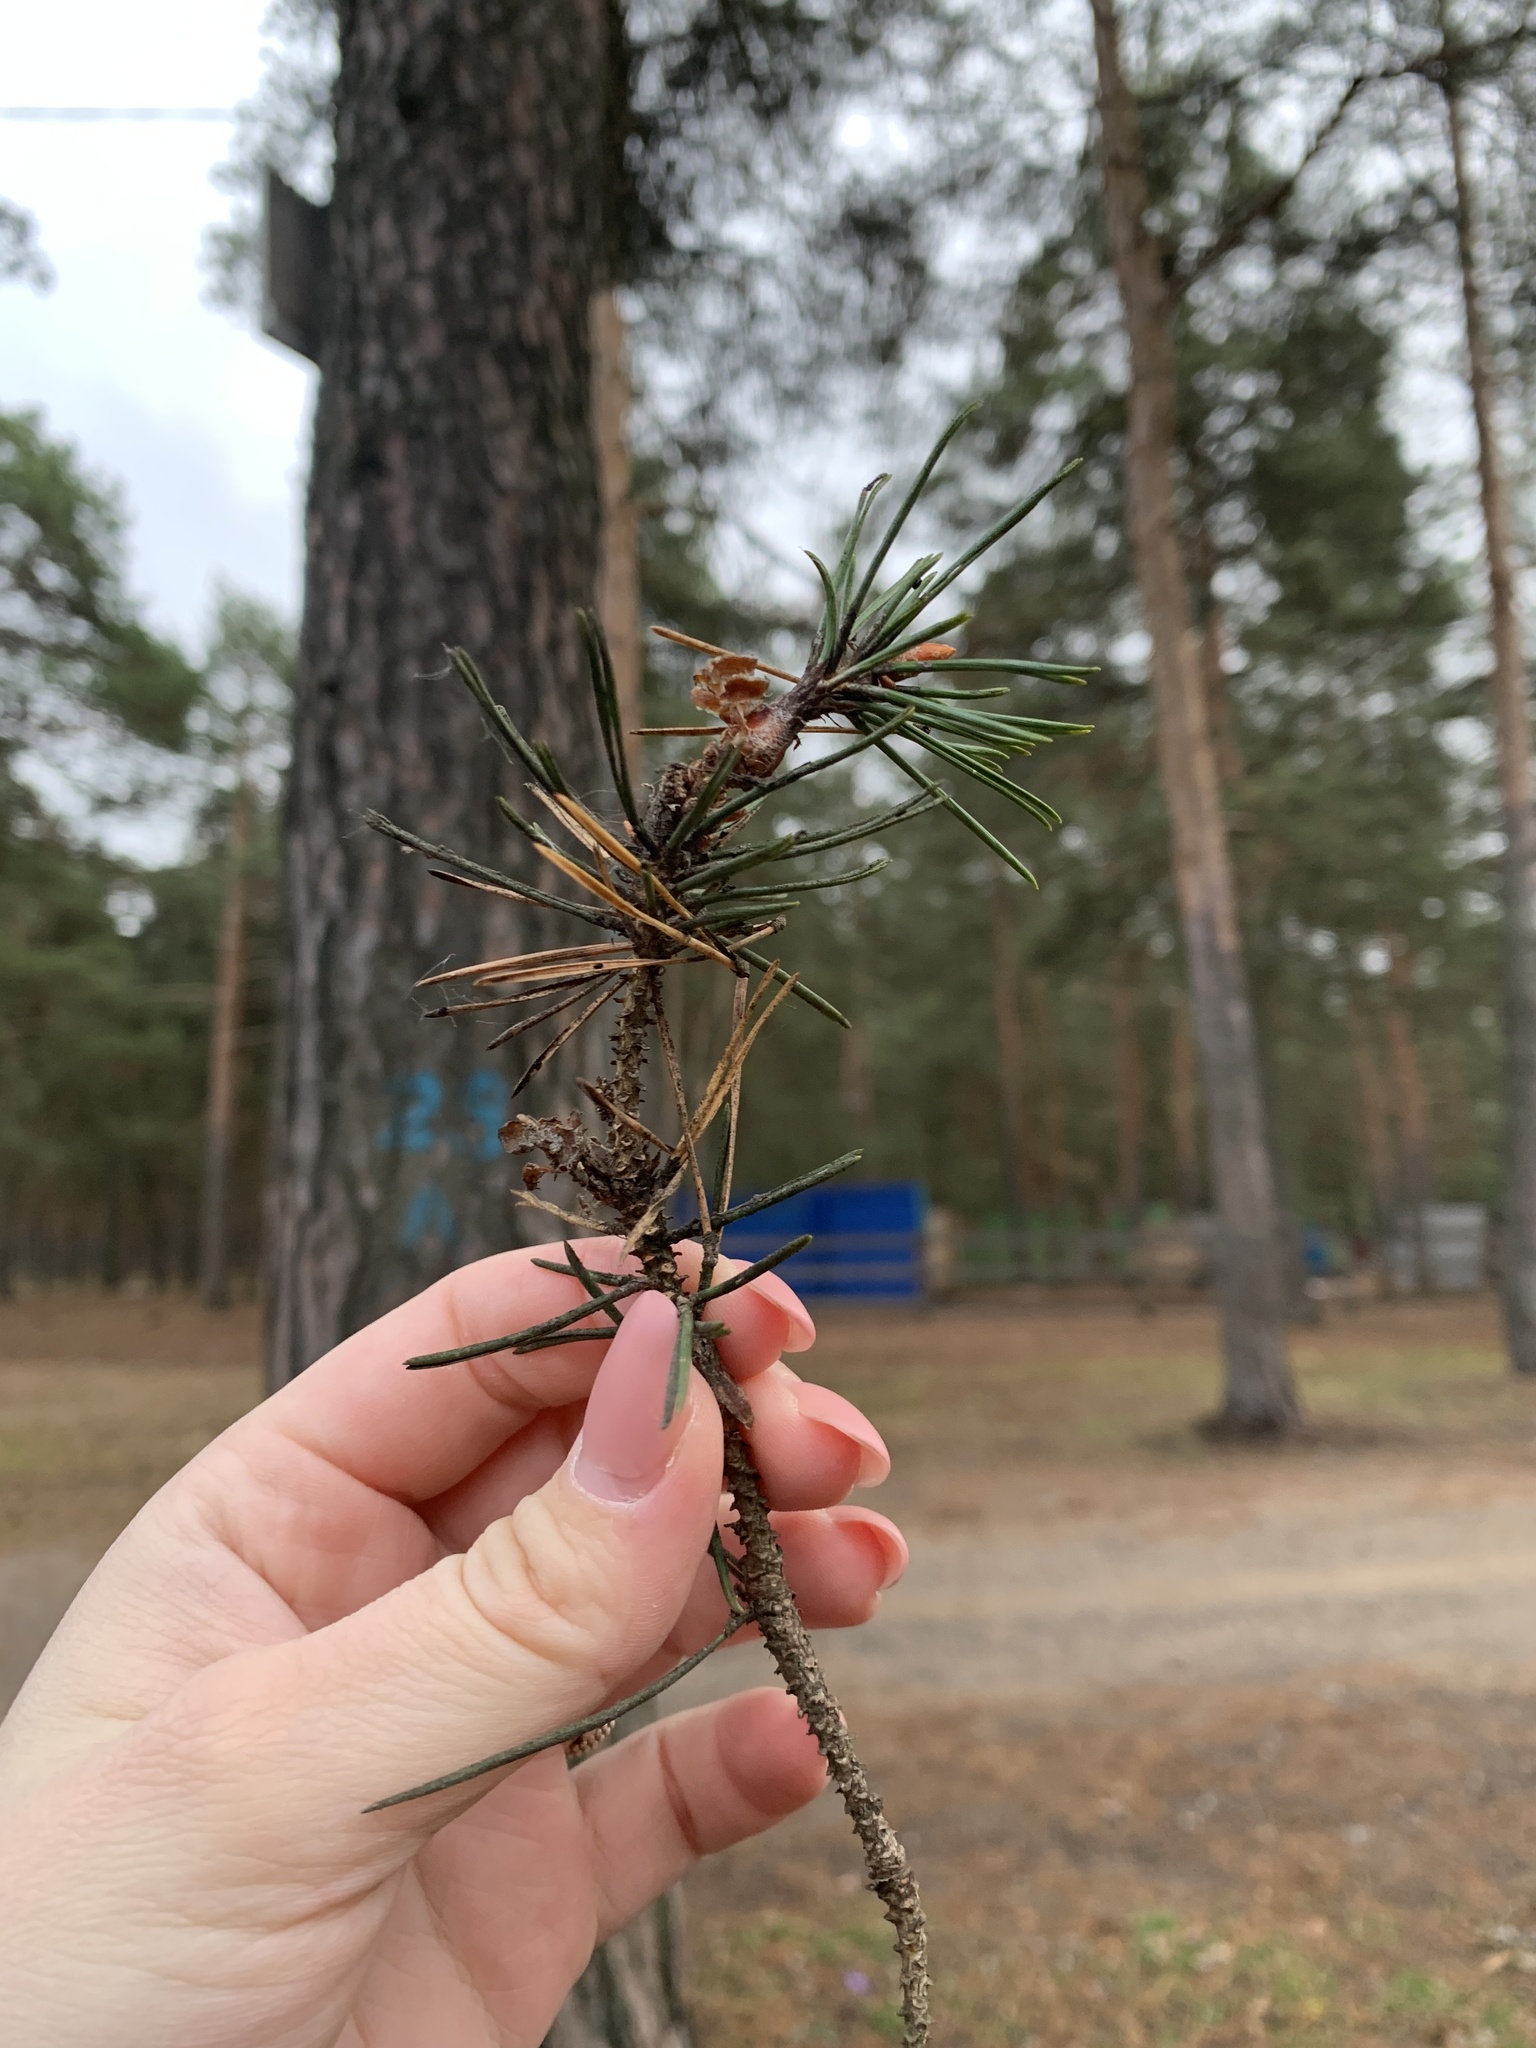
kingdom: Plantae
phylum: Tracheophyta
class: Pinopsida
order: Pinales
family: Pinaceae
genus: Pinus
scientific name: Pinus sylvestris
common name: Scots pine
